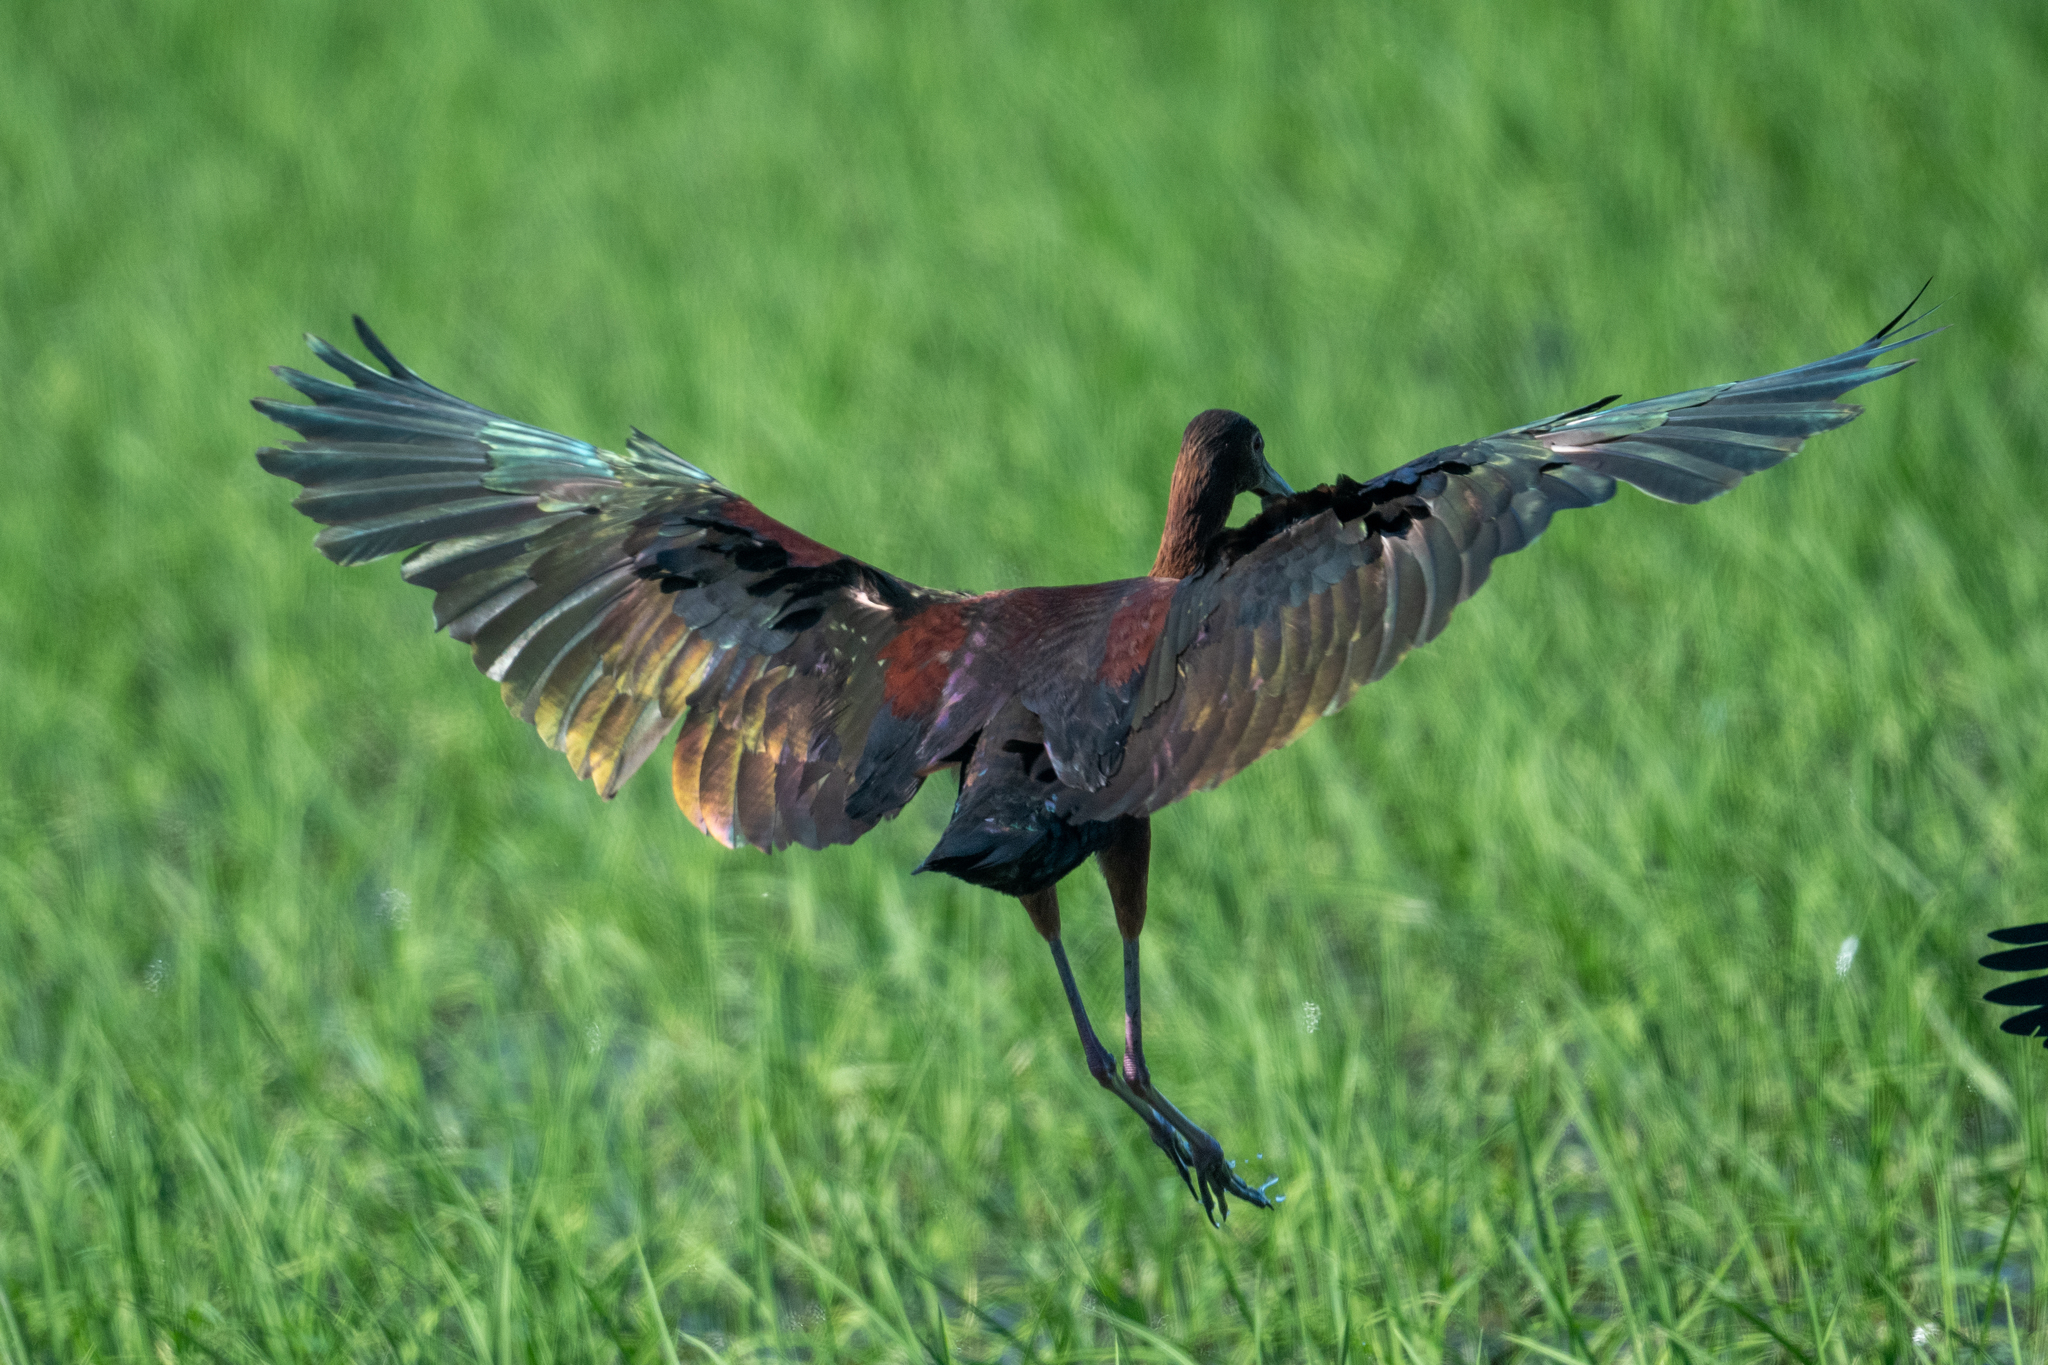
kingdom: Animalia
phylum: Chordata
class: Aves
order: Pelecaniformes
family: Threskiornithidae
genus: Plegadis
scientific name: Plegadis chihi
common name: White-faced ibis
